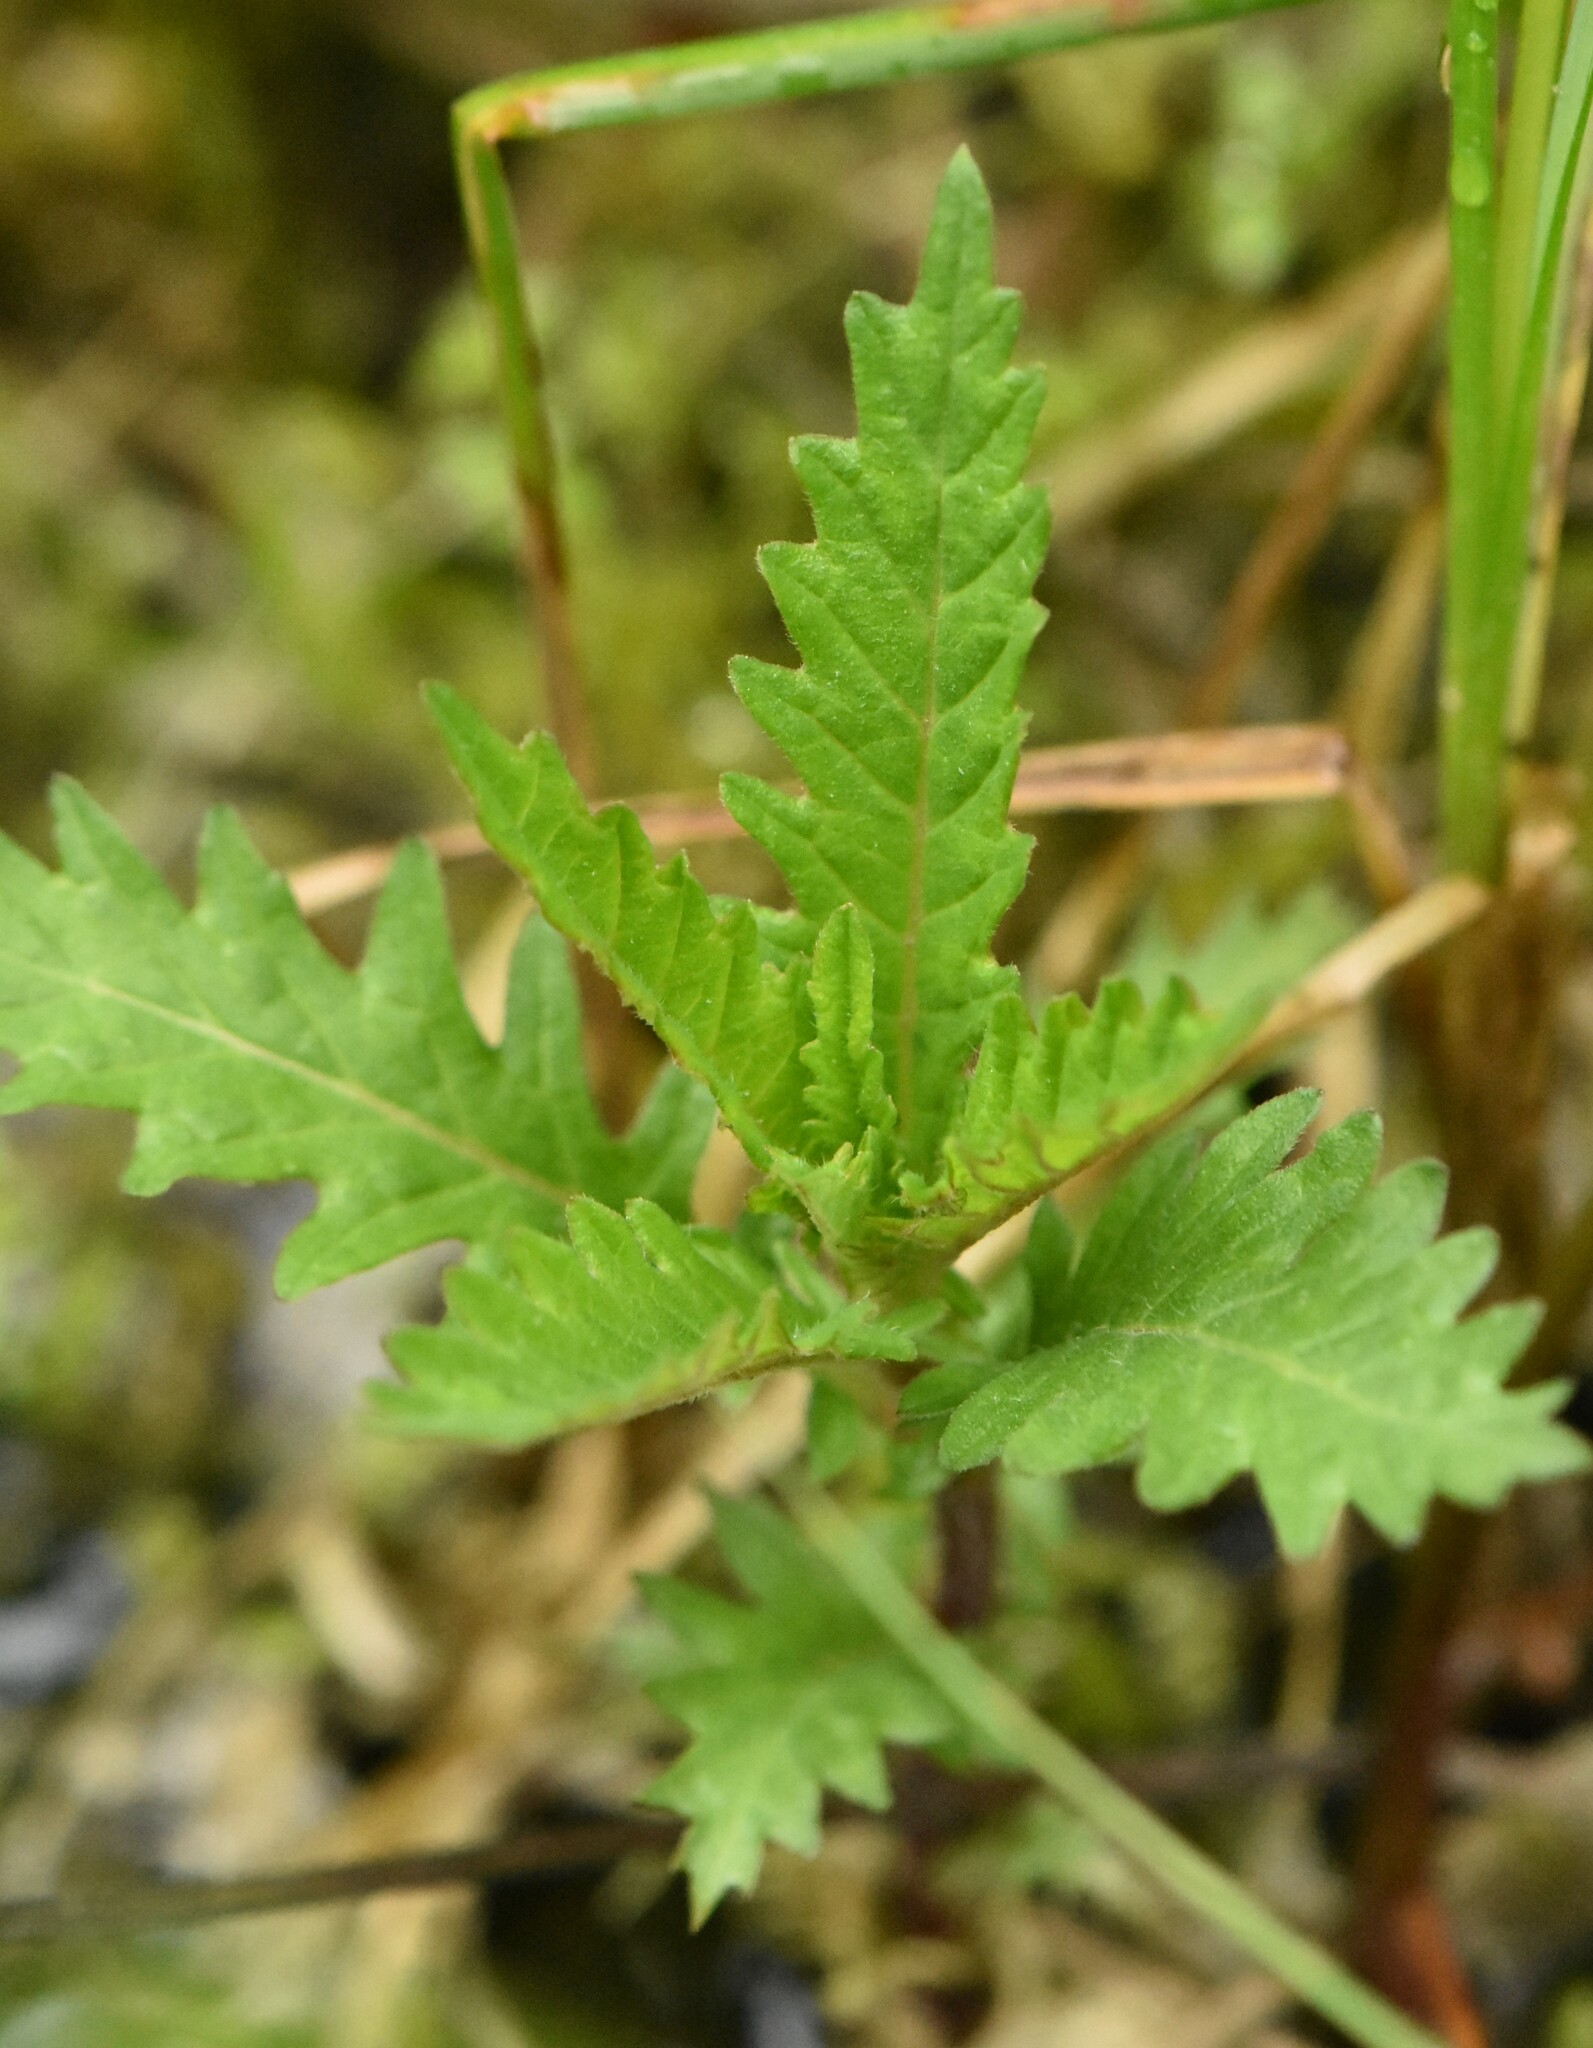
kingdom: Plantae
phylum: Tracheophyta
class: Magnoliopsida
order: Lamiales
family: Lamiaceae
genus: Lycopus
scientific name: Lycopus europaeus
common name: European bugleweed
